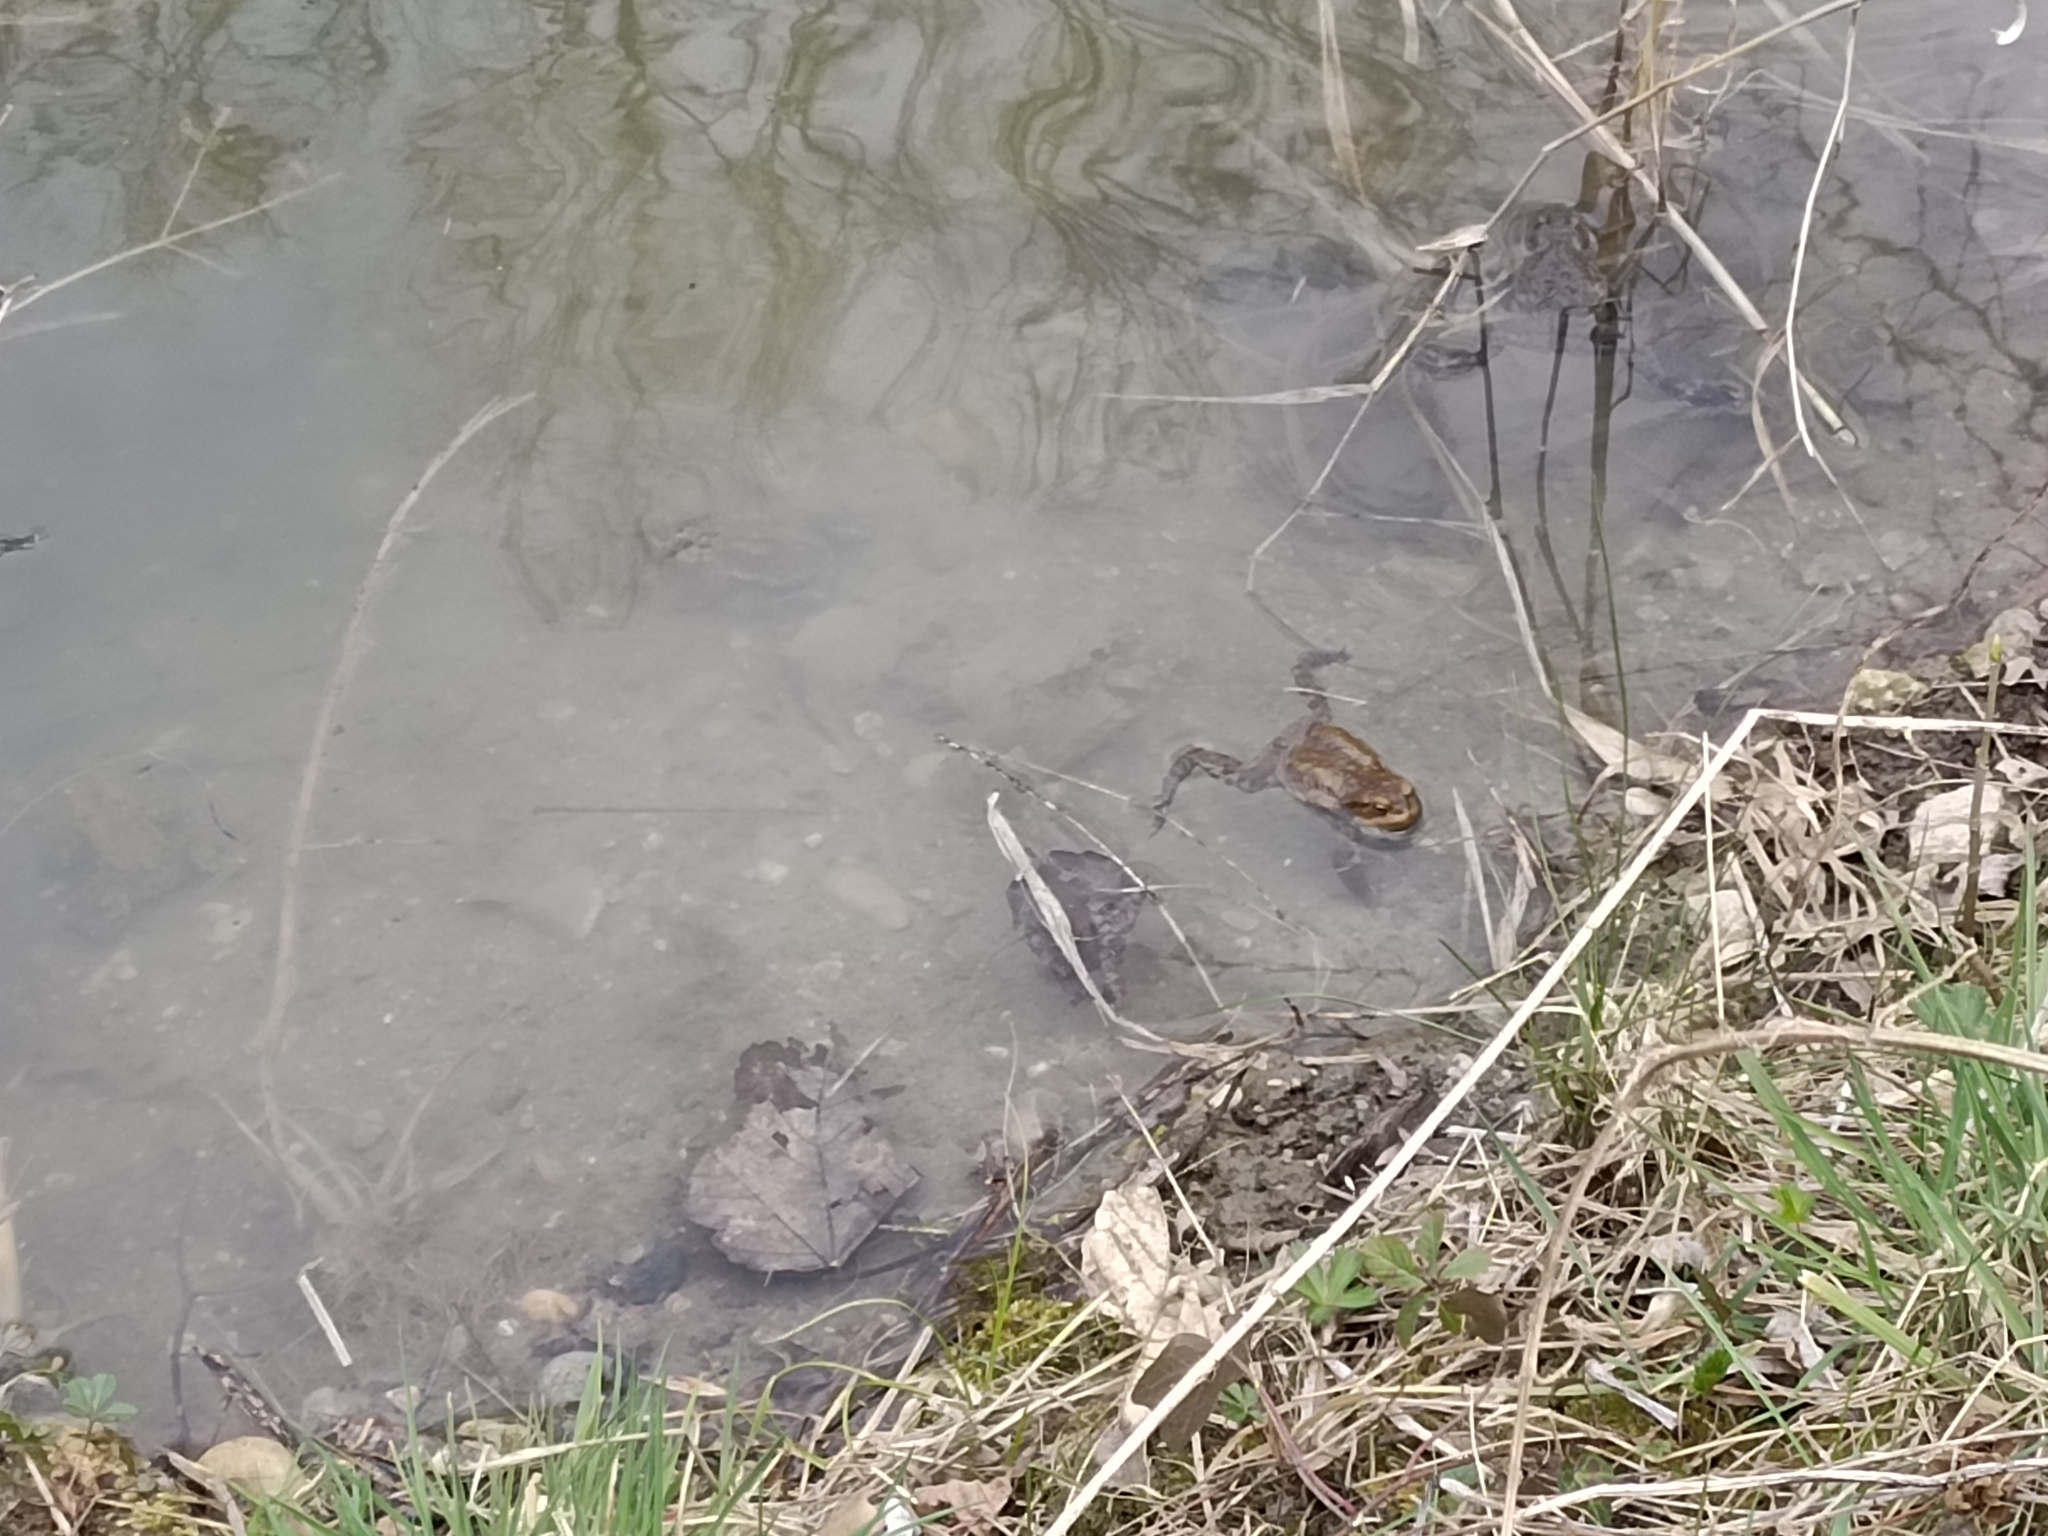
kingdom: Animalia
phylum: Chordata
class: Amphibia
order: Anura
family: Bufonidae
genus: Bufo
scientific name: Bufo bufo
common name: Common toad
